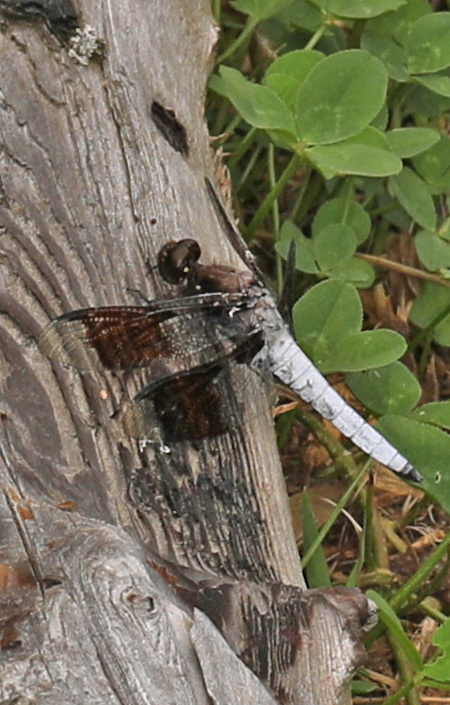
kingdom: Animalia
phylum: Arthropoda
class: Insecta
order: Odonata
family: Libellulidae
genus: Plathemis
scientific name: Plathemis lydia
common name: Common whitetail
